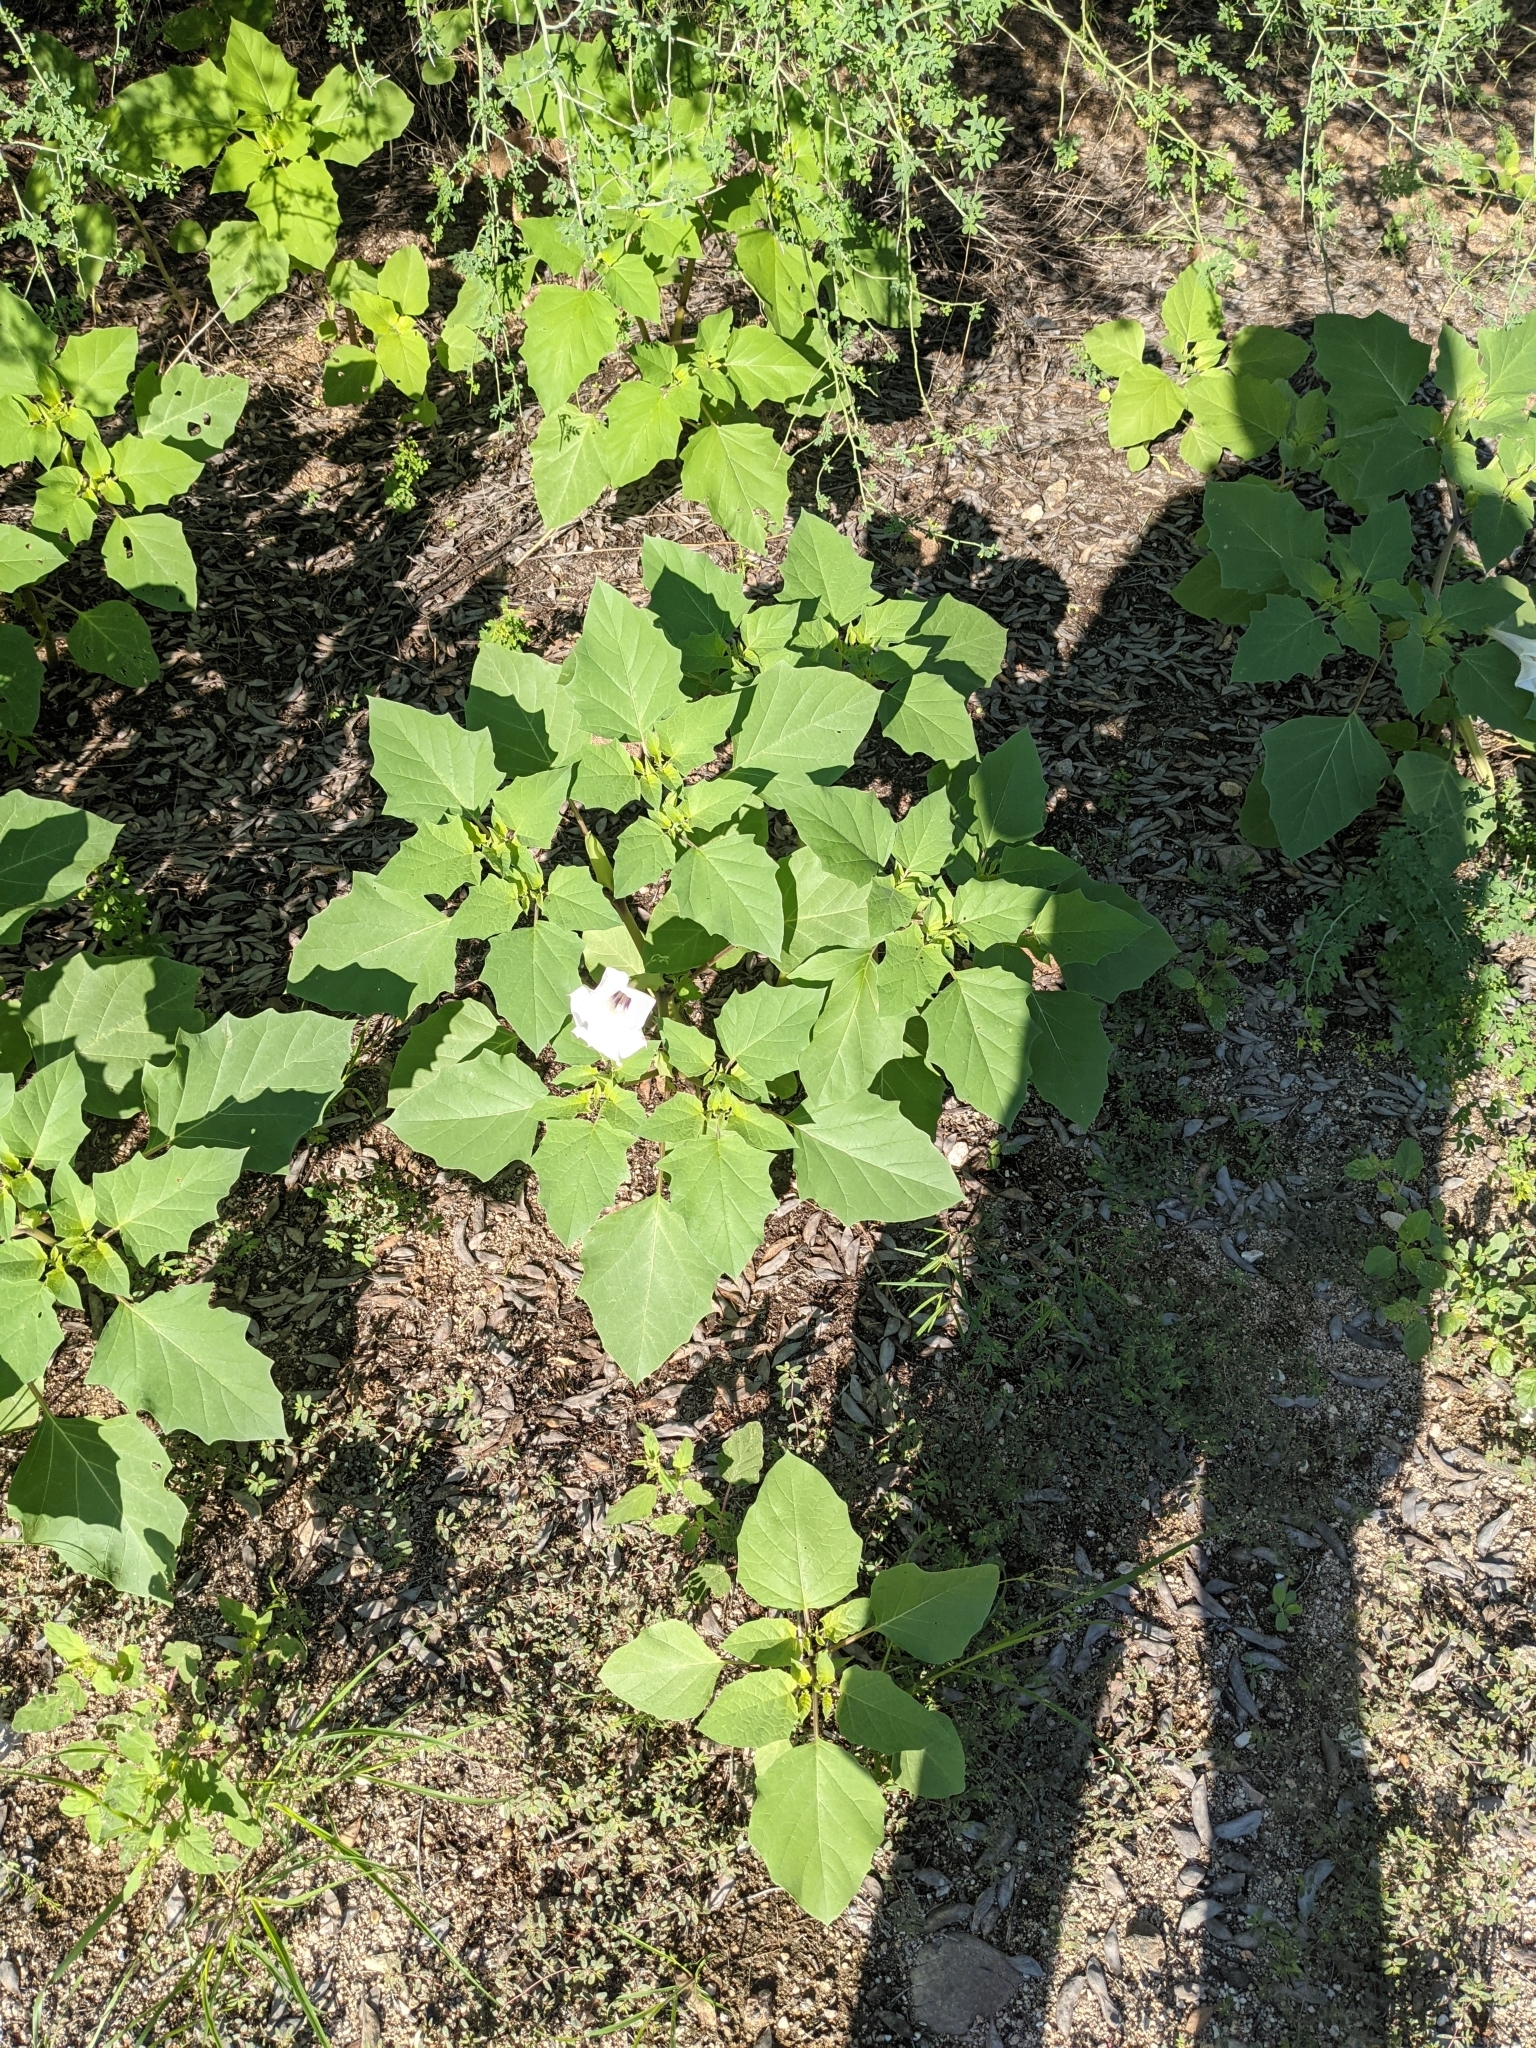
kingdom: Plantae
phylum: Tracheophyta
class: Magnoliopsida
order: Solanales
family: Solanaceae
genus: Datura
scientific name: Datura discolor
